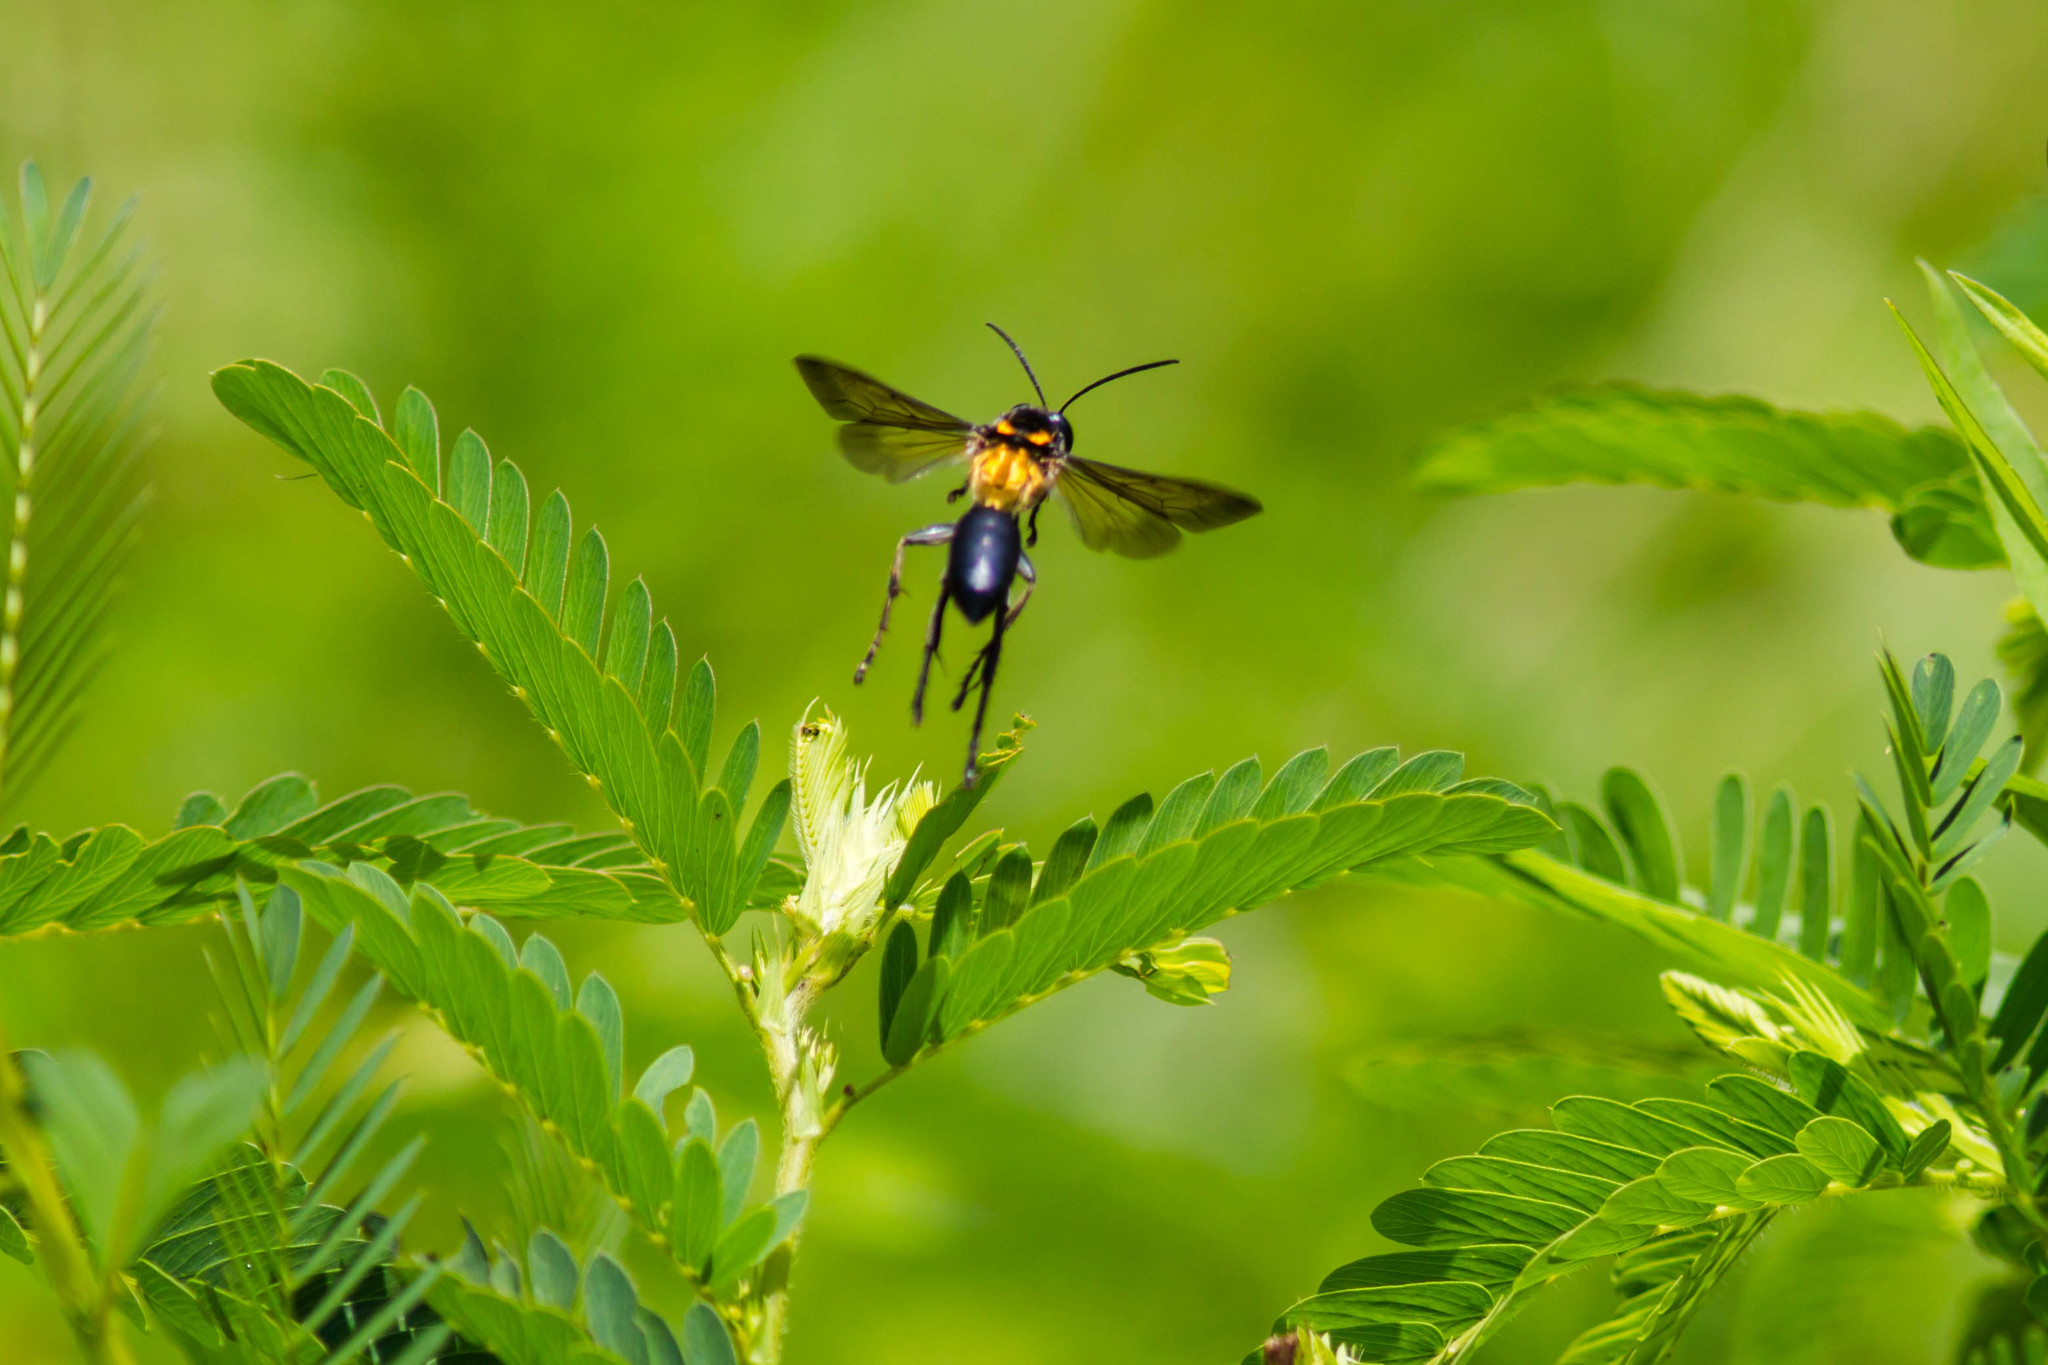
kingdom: Animalia
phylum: Arthropoda
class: Insecta
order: Hymenoptera
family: Sphecidae
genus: Sphex
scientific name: Sphex habenus
